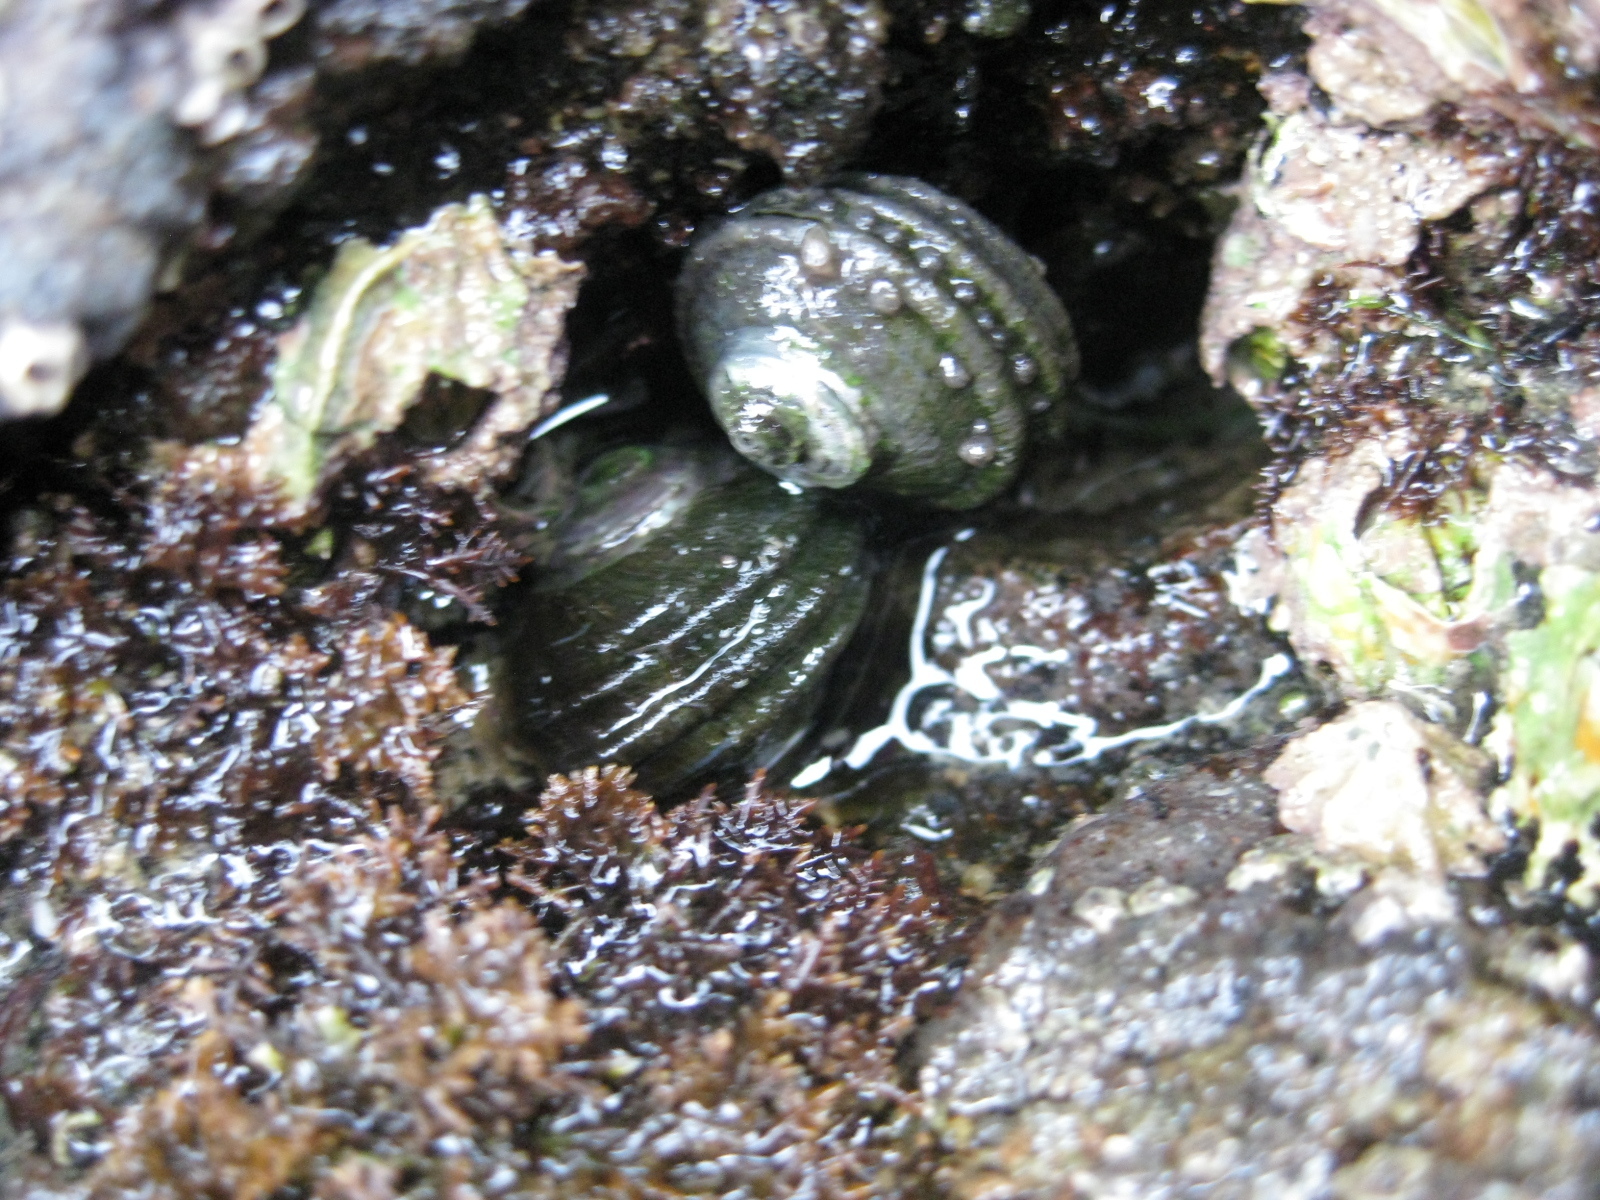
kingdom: Animalia
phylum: Mollusca
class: Gastropoda
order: Trochida
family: Turbinidae
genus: Lunella
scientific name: Lunella smaragda
